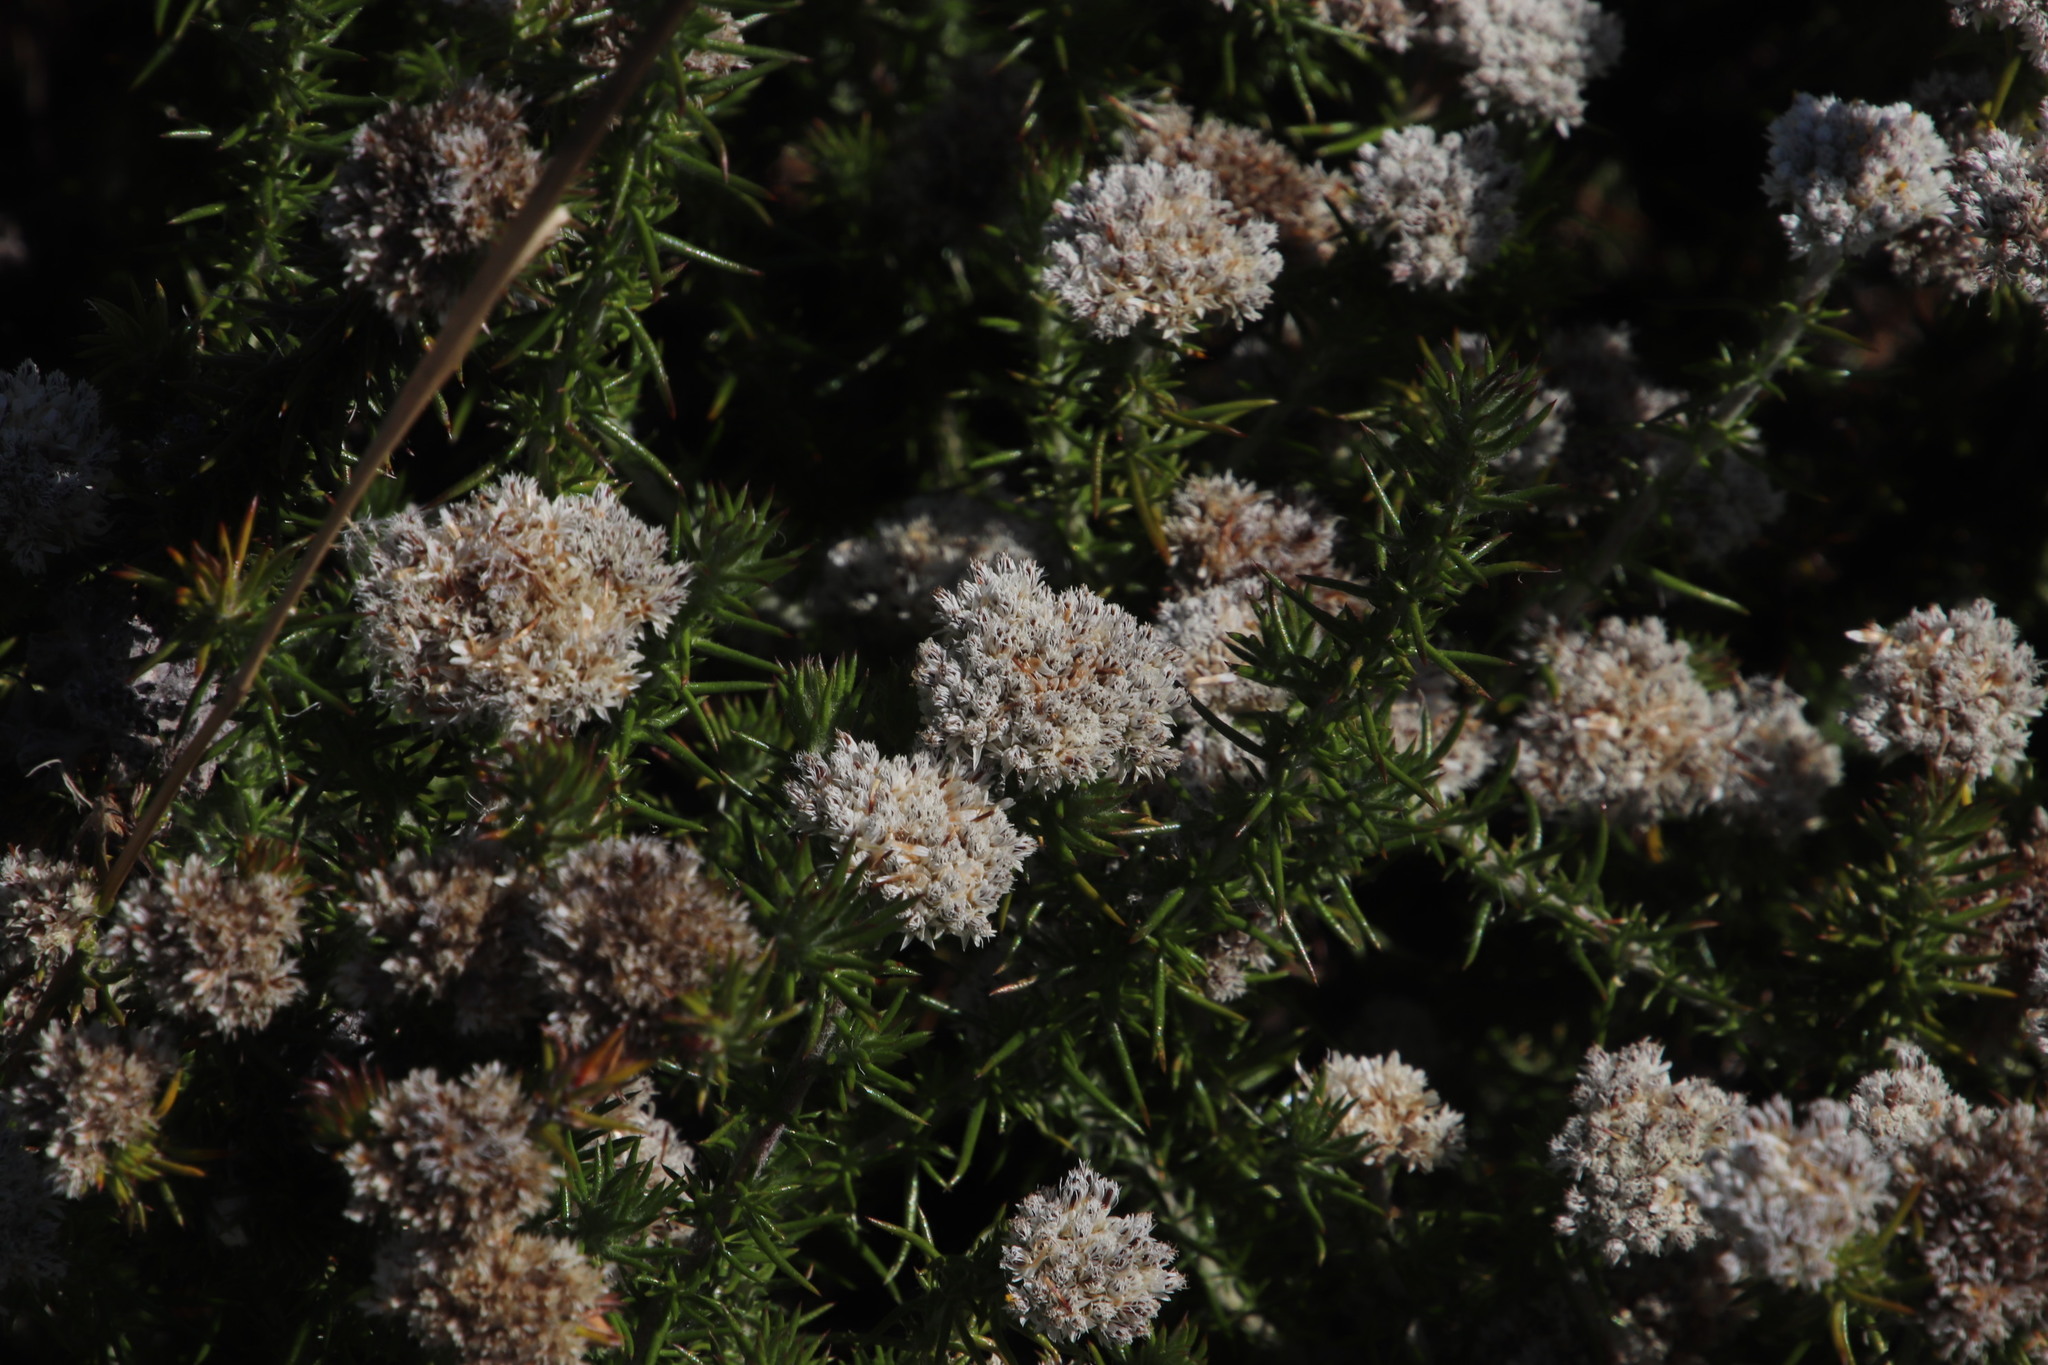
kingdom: Plantae
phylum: Tracheophyta
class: Magnoliopsida
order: Asterales
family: Asteraceae
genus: Metalasia
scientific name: Metalasia pulchella
